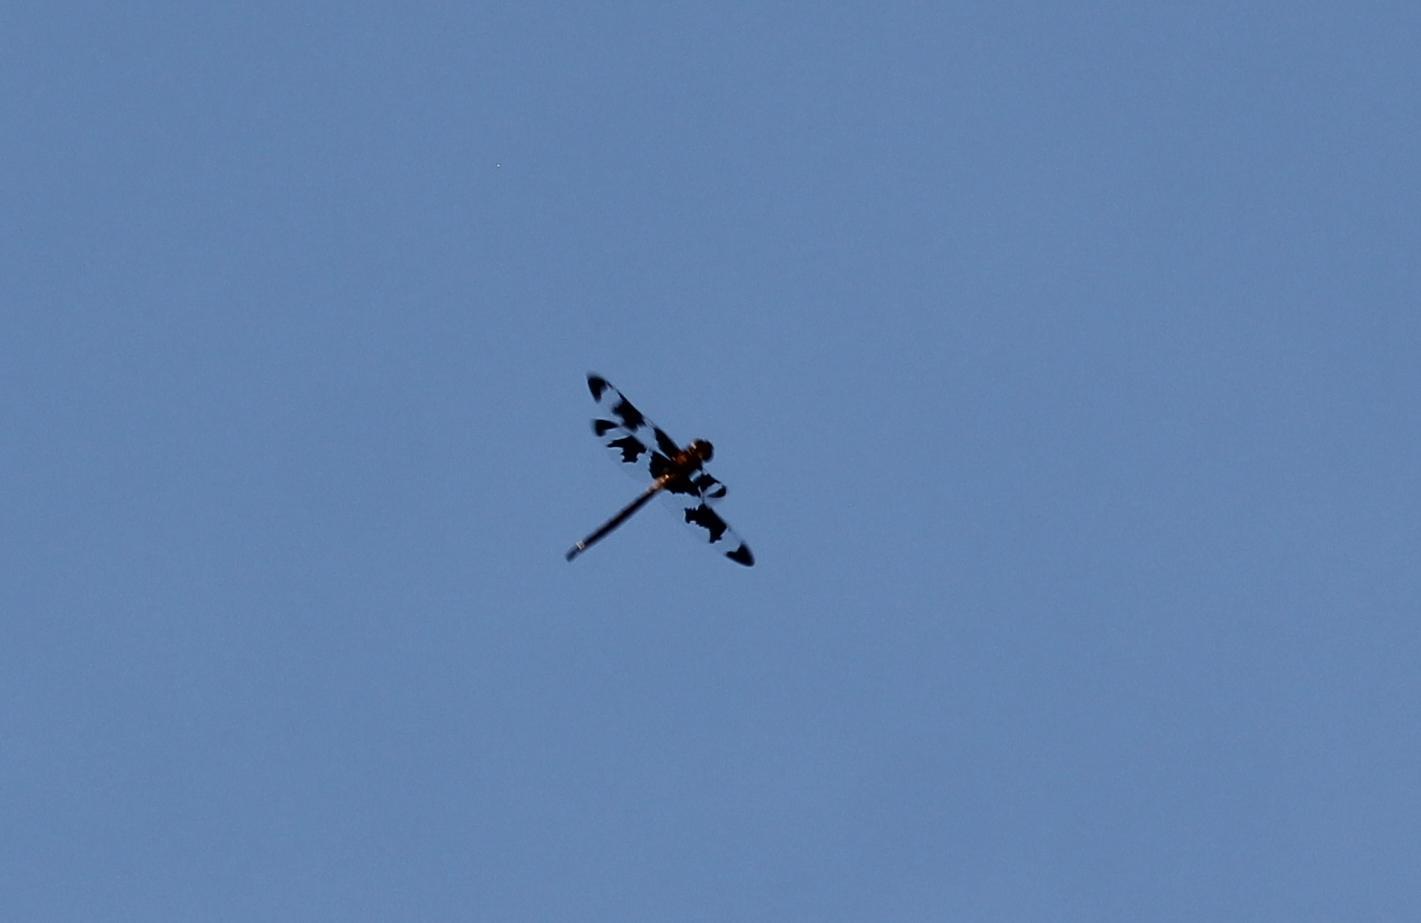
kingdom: Animalia
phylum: Arthropoda
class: Insecta
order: Odonata
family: Corduliidae
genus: Epitheca
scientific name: Epitheca princeps
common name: Prince baskettail
